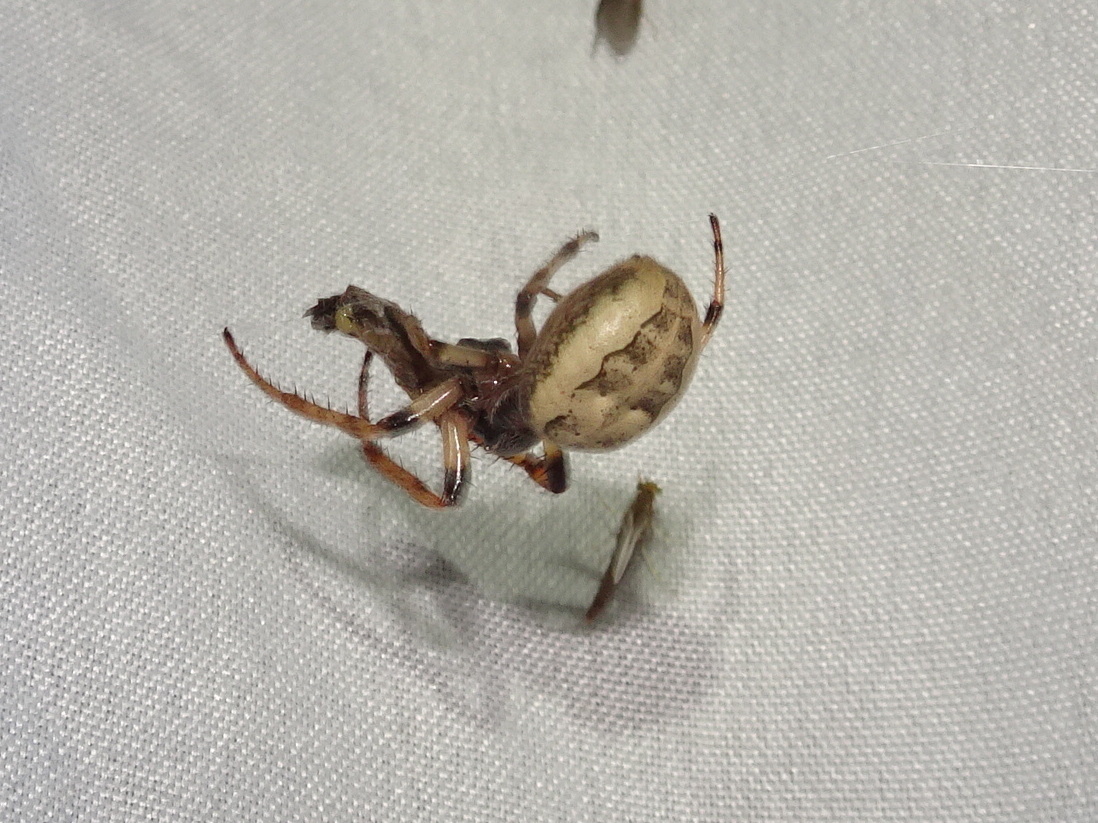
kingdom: Animalia
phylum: Arthropoda
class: Arachnida
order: Araneae
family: Araneidae
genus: Larinioides
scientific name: Larinioides cornutus
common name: Furrow orbweaver
